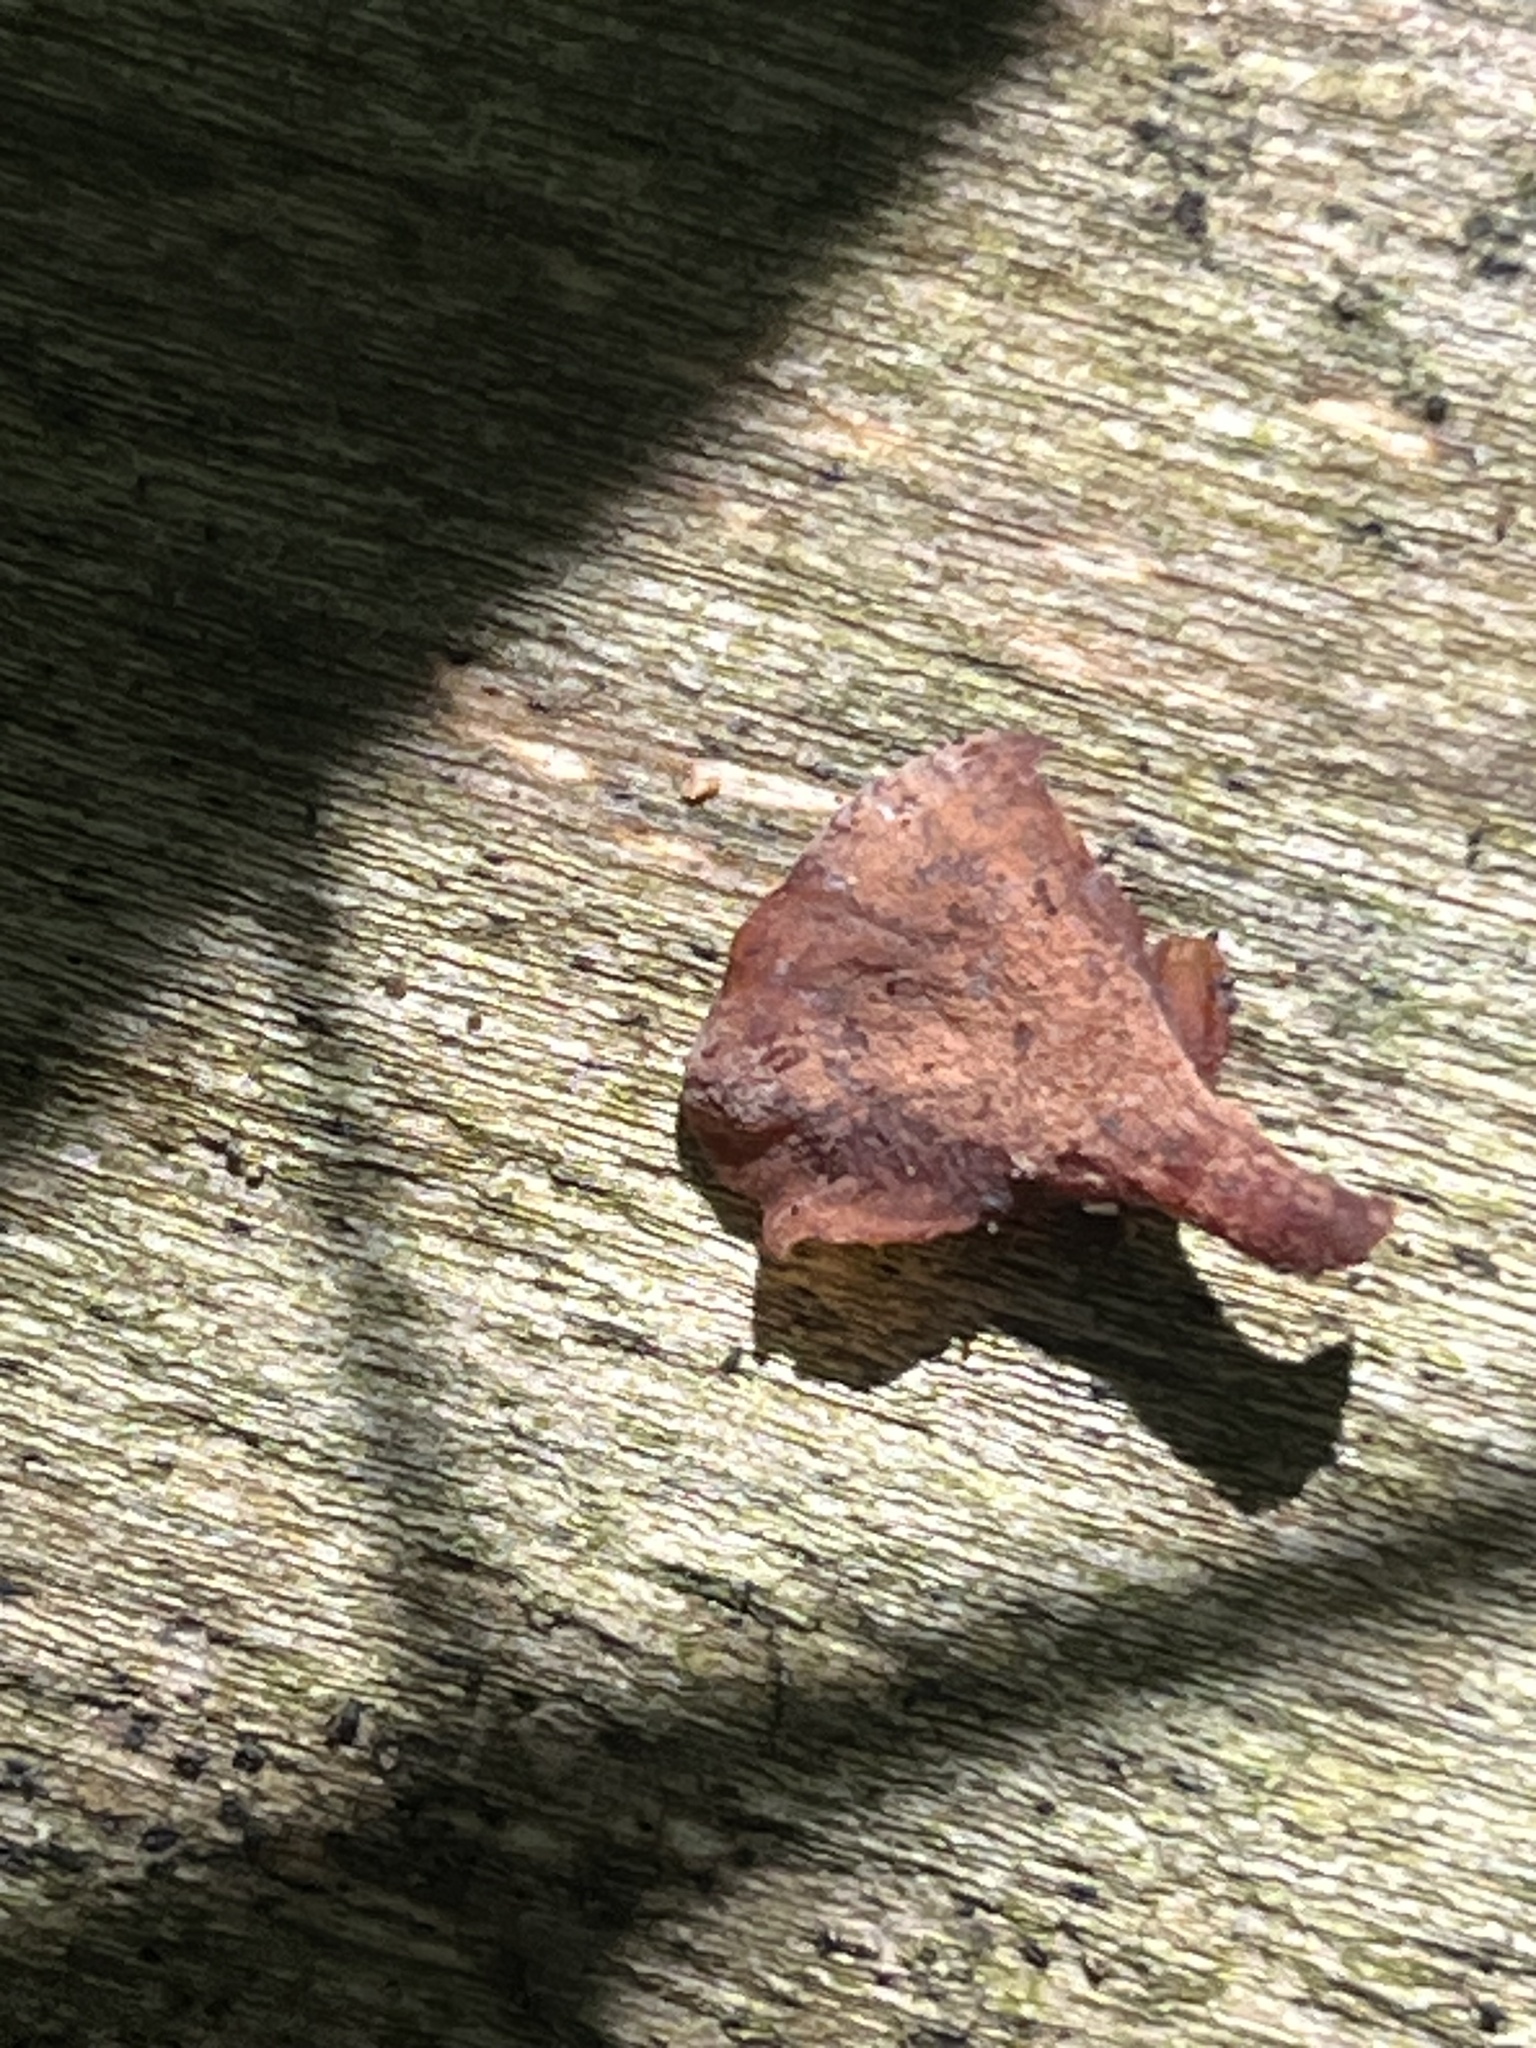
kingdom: Fungi
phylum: Basidiomycota
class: Dacrymycetes
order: Dacrymycetales
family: Dacrymycetaceae
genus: Dacryopinax
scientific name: Dacryopinax elegans
